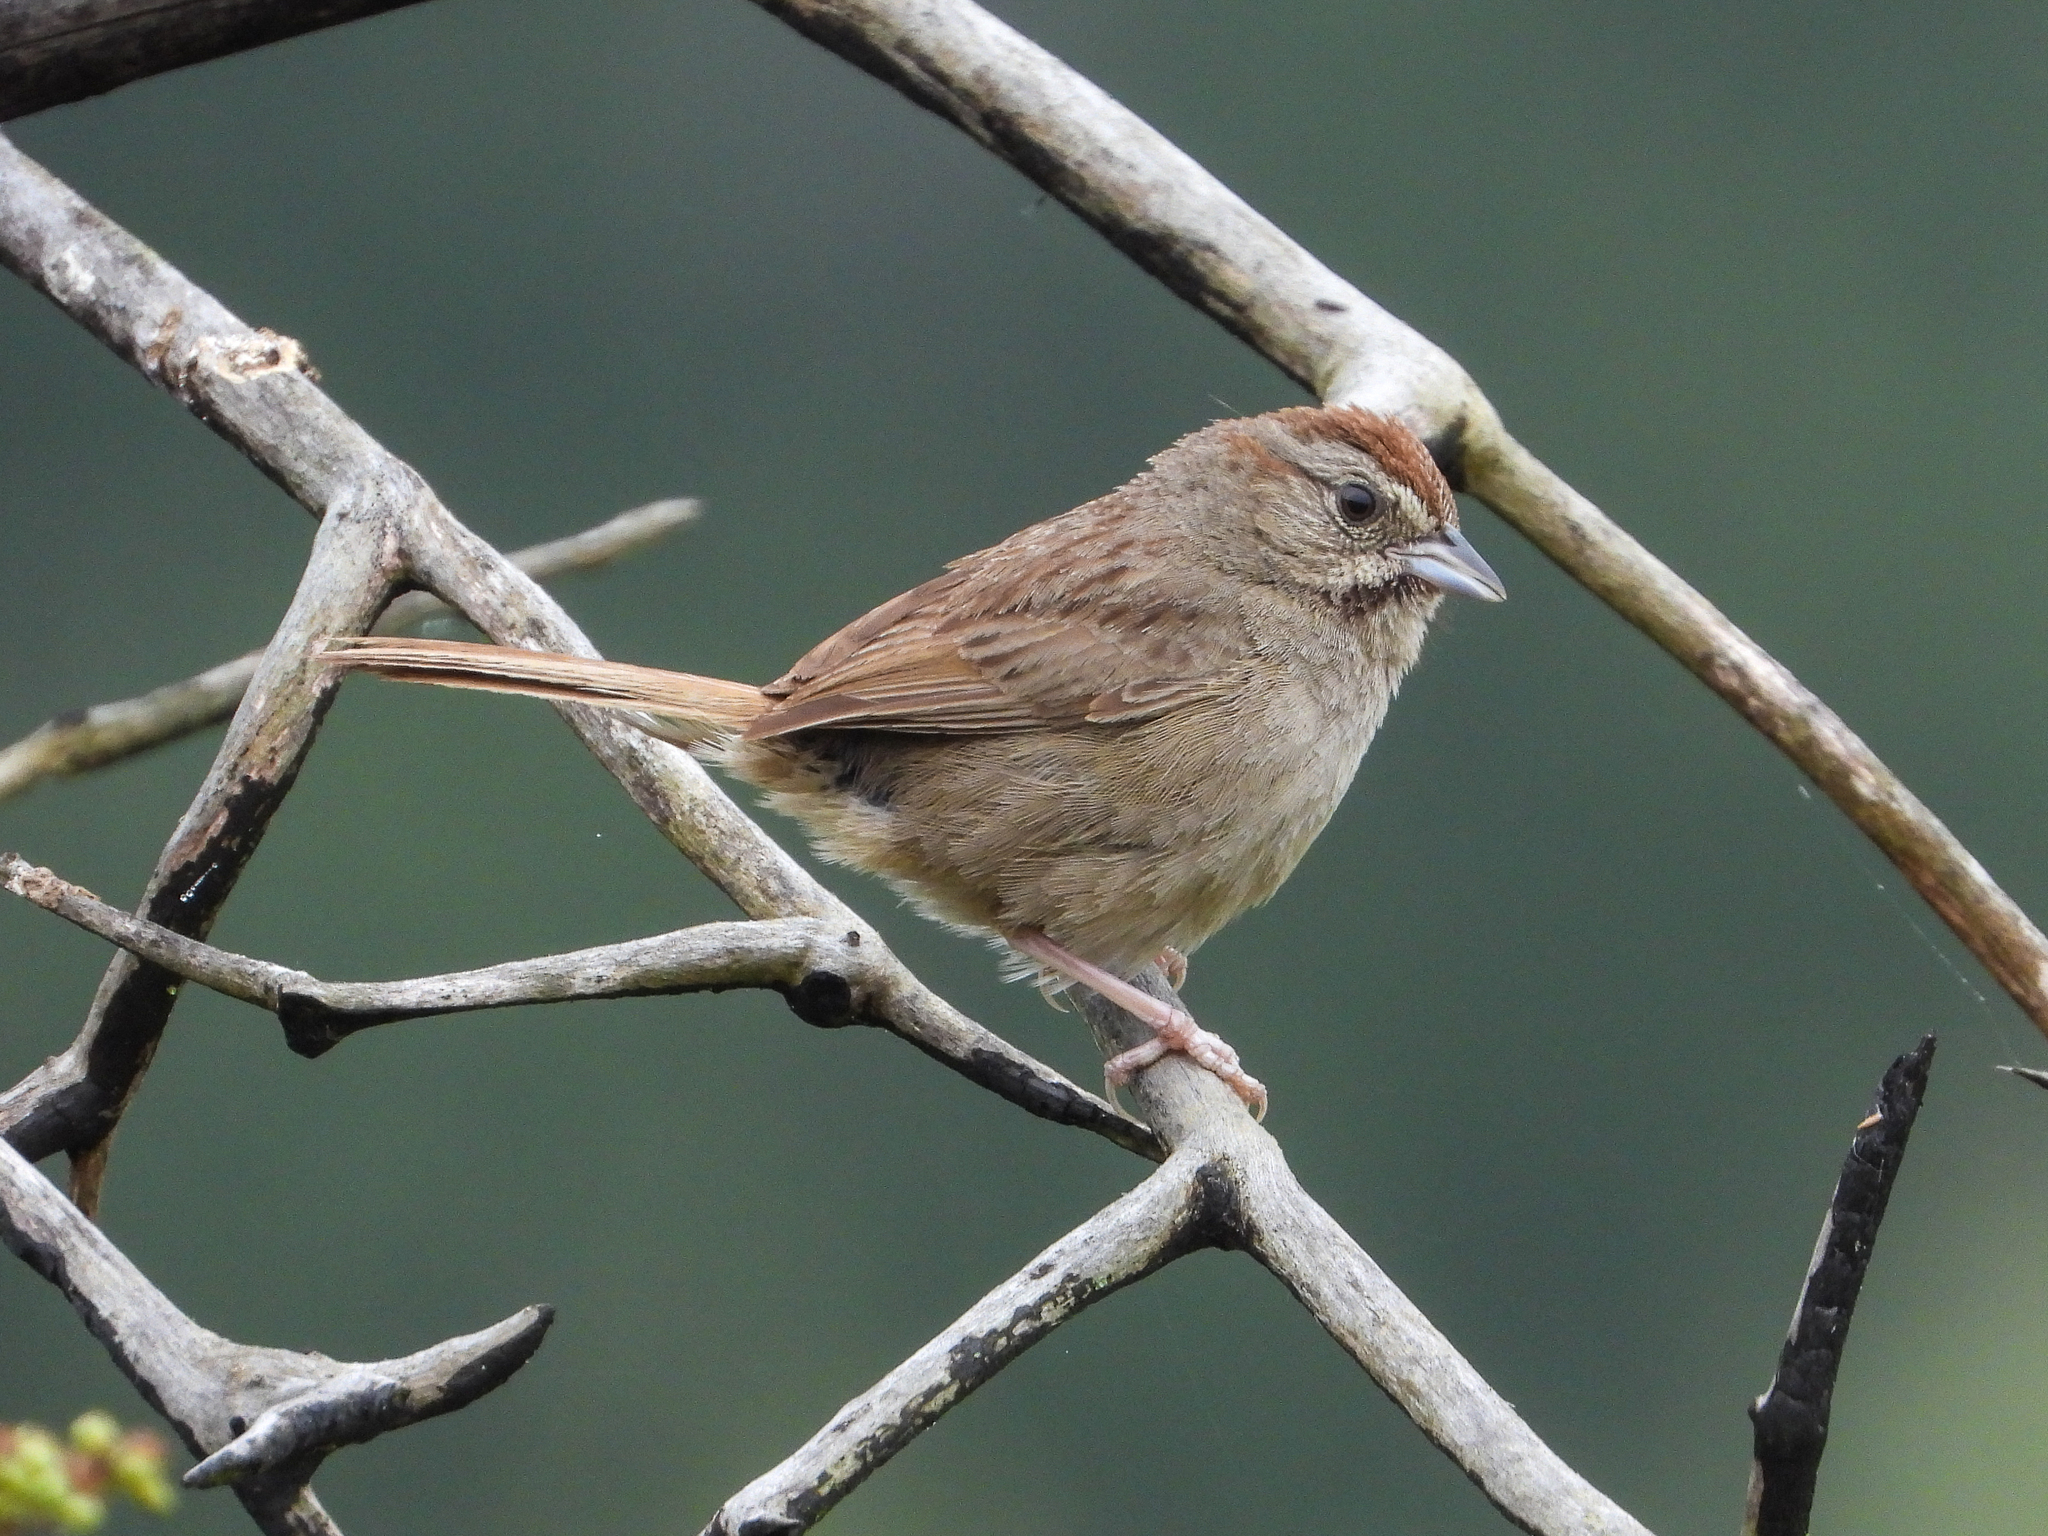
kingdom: Animalia
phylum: Chordata
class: Aves
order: Passeriformes
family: Passerellidae
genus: Aimophila
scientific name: Aimophila ruficeps
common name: Rufous-crowned sparrow
